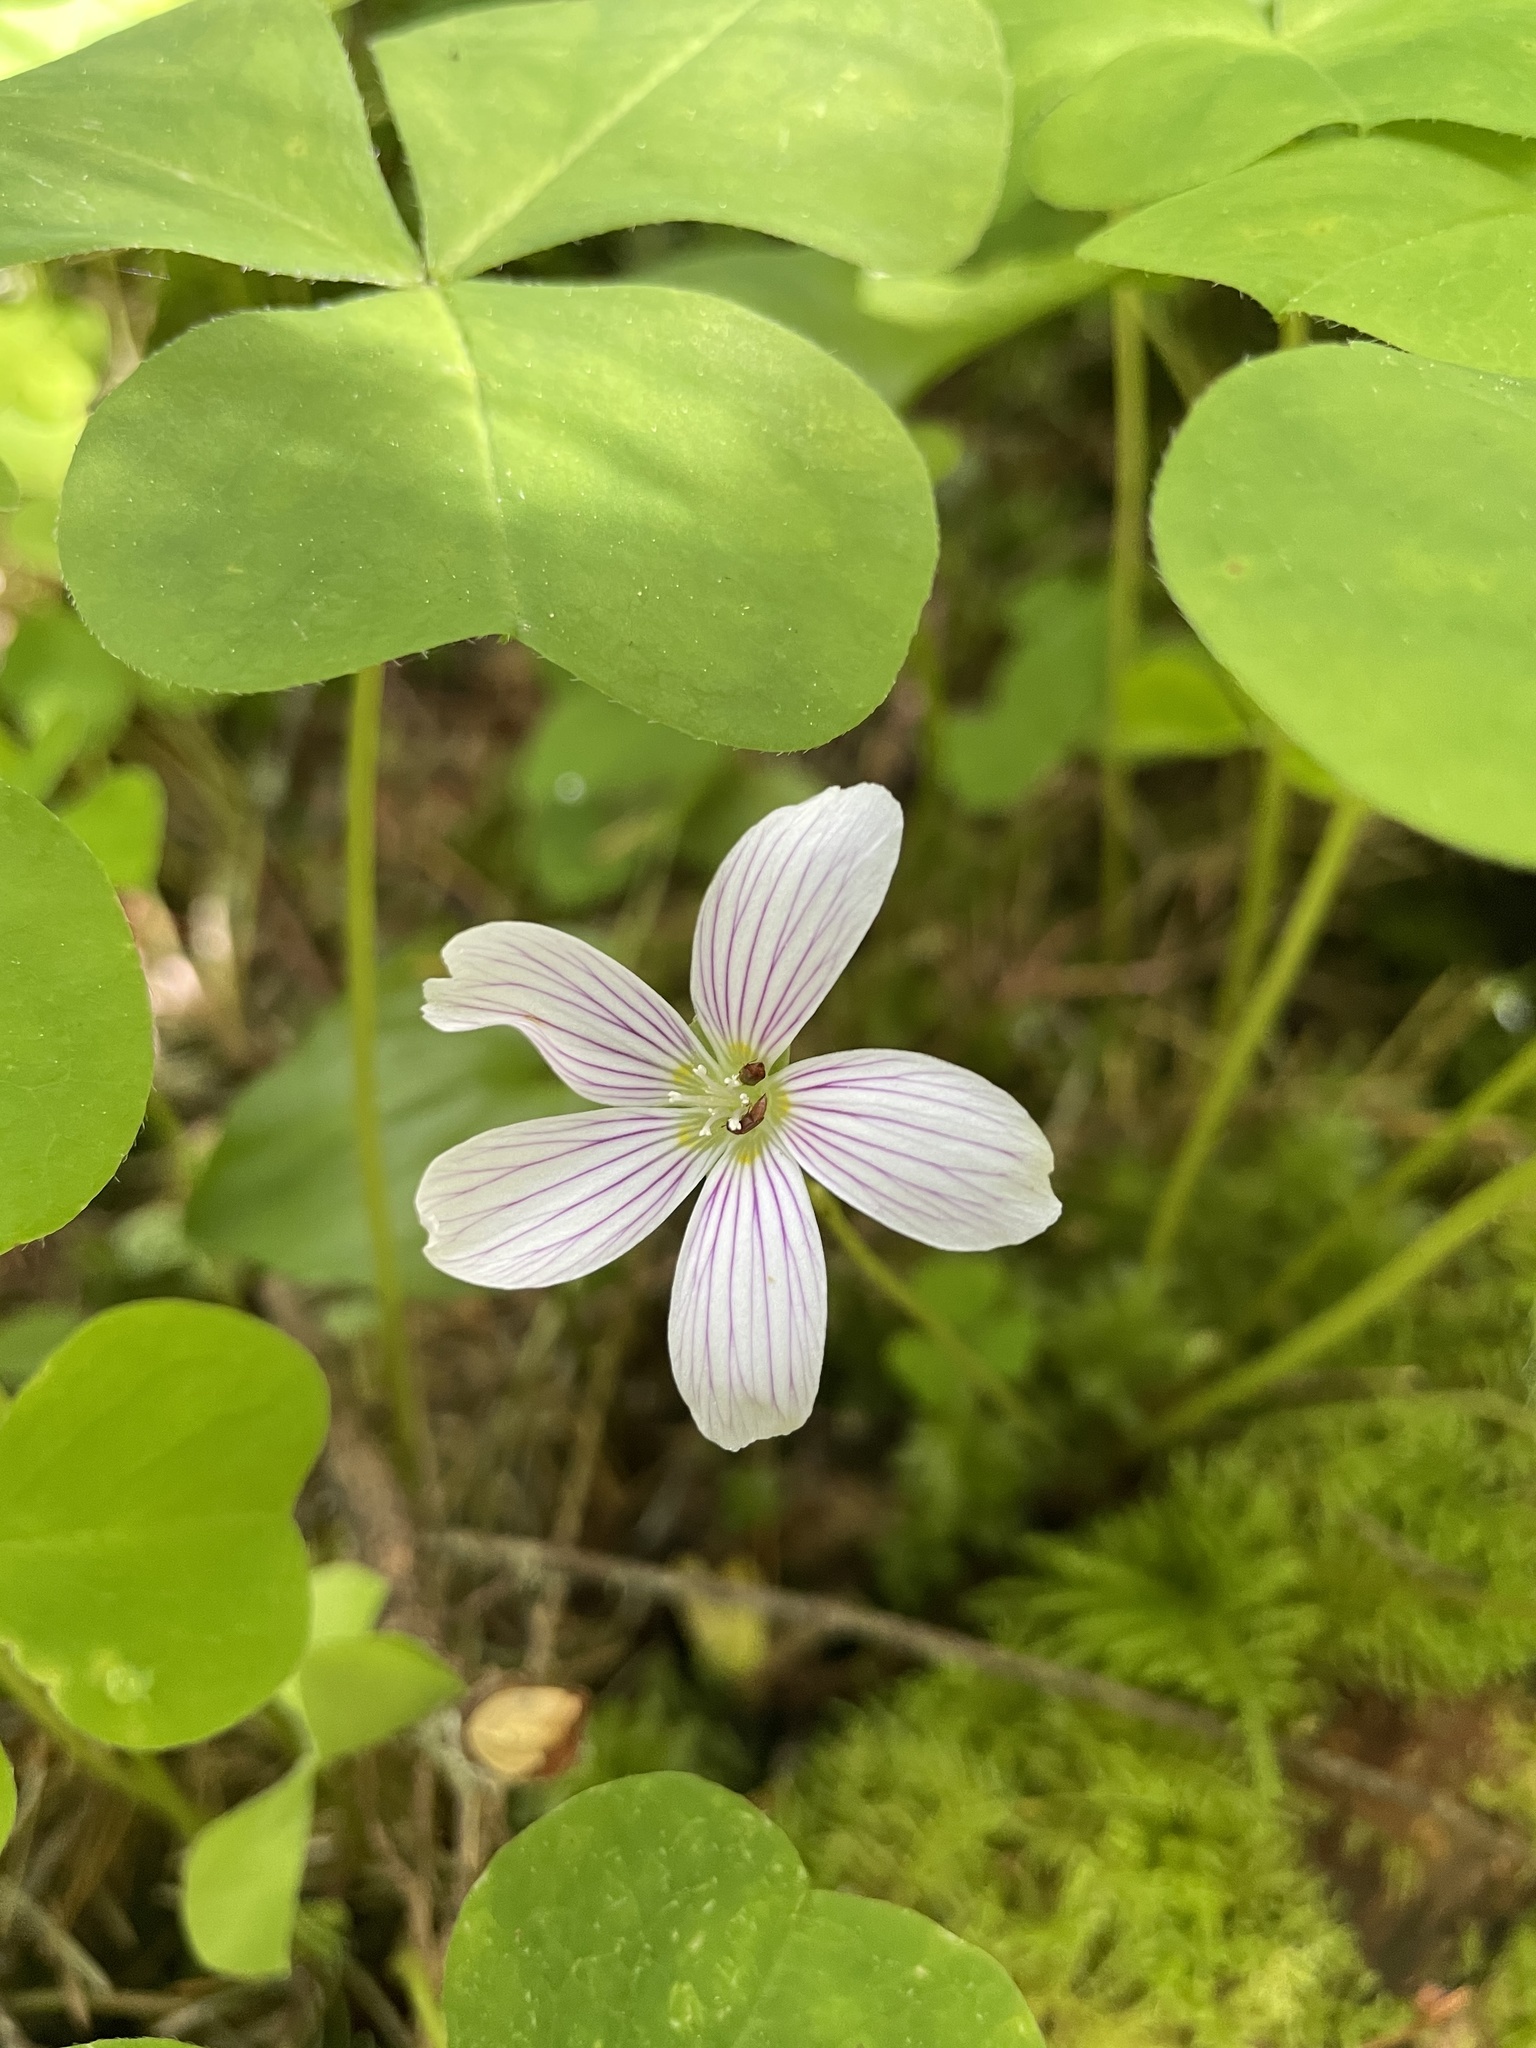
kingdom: Plantae
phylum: Tracheophyta
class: Magnoliopsida
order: Oxalidales
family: Oxalidaceae
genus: Oxalis
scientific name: Oxalis oregana
